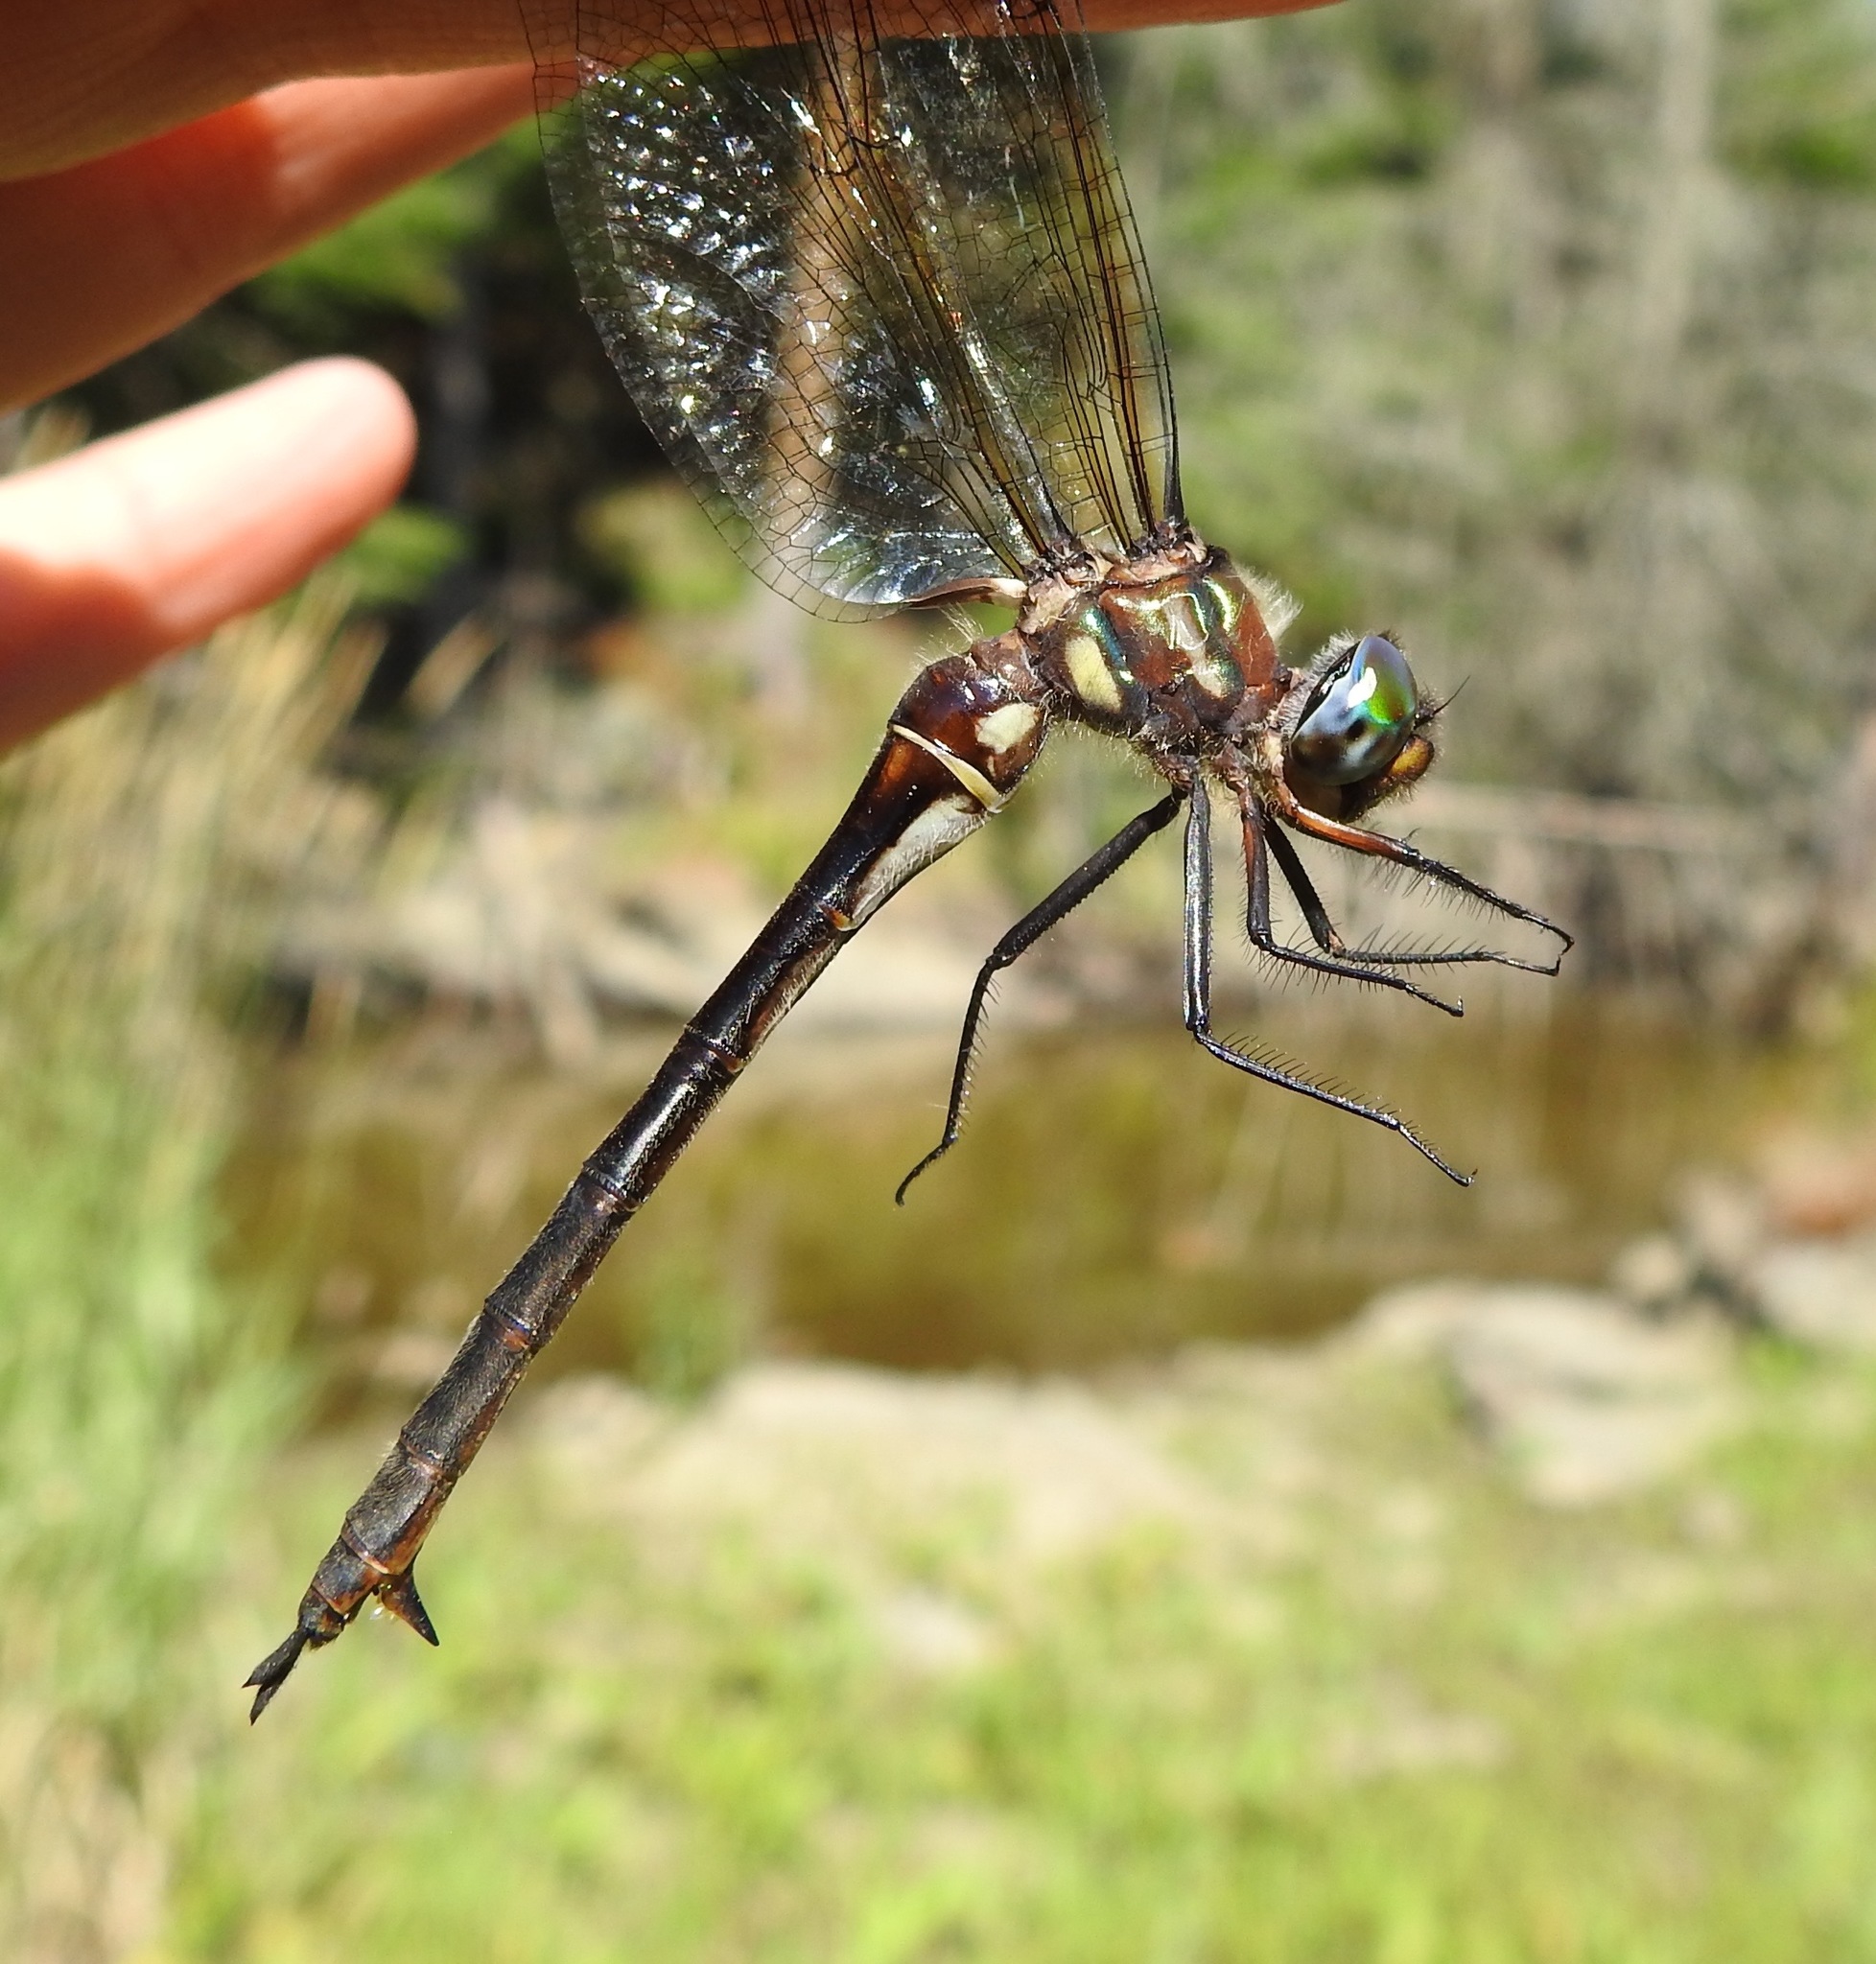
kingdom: Animalia
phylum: Arthropoda
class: Insecta
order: Odonata
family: Corduliidae
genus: Somatochlora
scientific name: Somatochlora tenebrosa
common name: Clamp-tipped emerald
